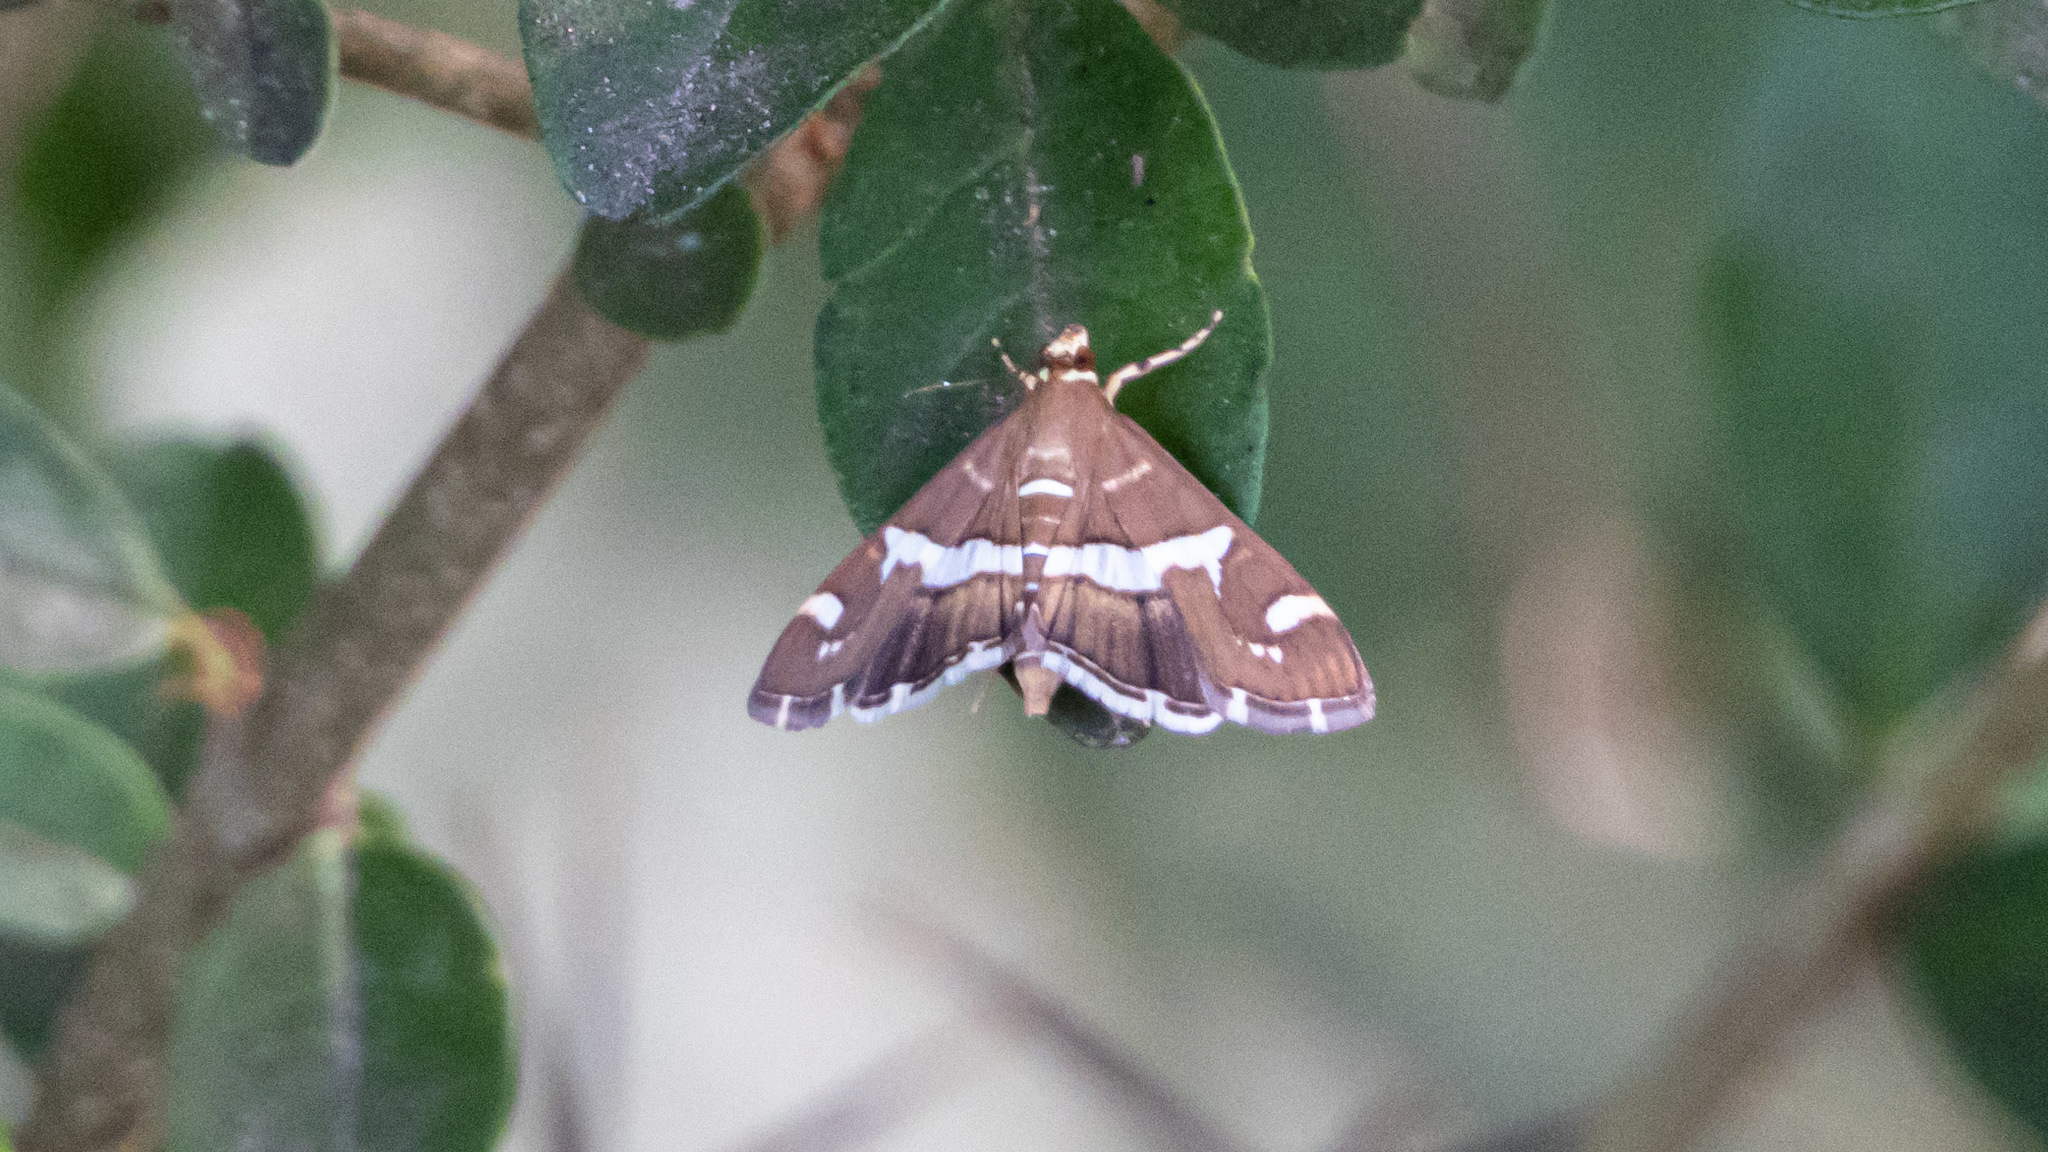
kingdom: Animalia
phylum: Arthropoda
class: Insecta
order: Lepidoptera
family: Crambidae
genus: Spoladea
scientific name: Spoladea recurvalis
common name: Beet webworm moth
